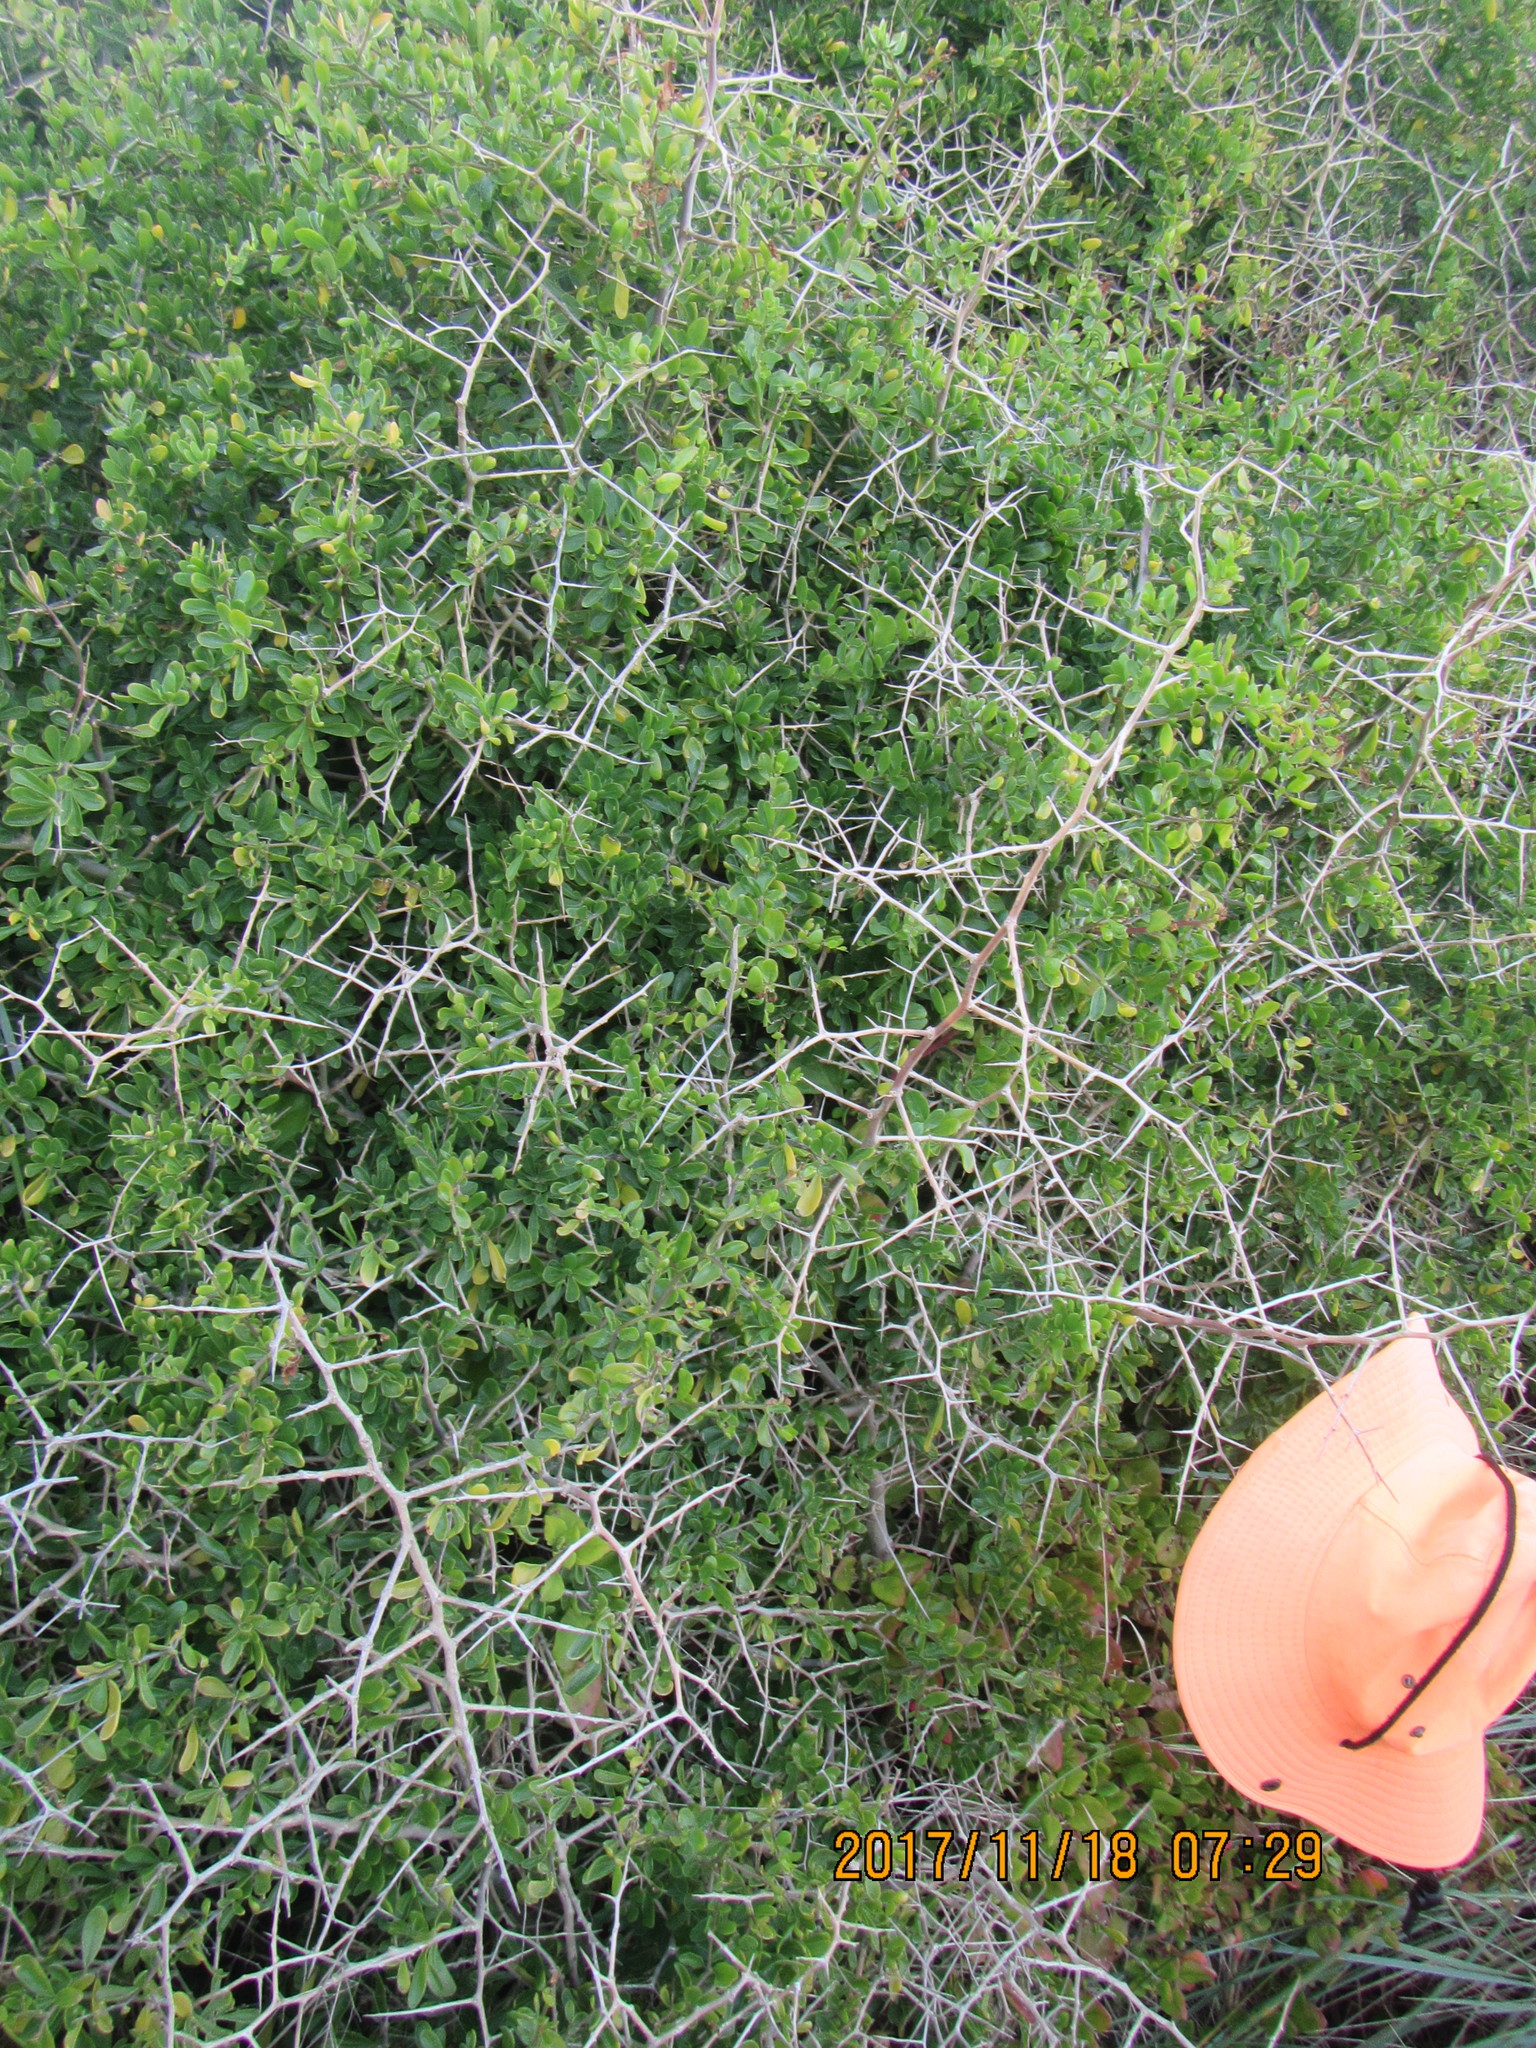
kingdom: Plantae
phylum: Tracheophyta
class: Magnoliopsida
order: Solanales
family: Solanaceae
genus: Lycium
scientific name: Lycium ferocissimum
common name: African boxthorn
